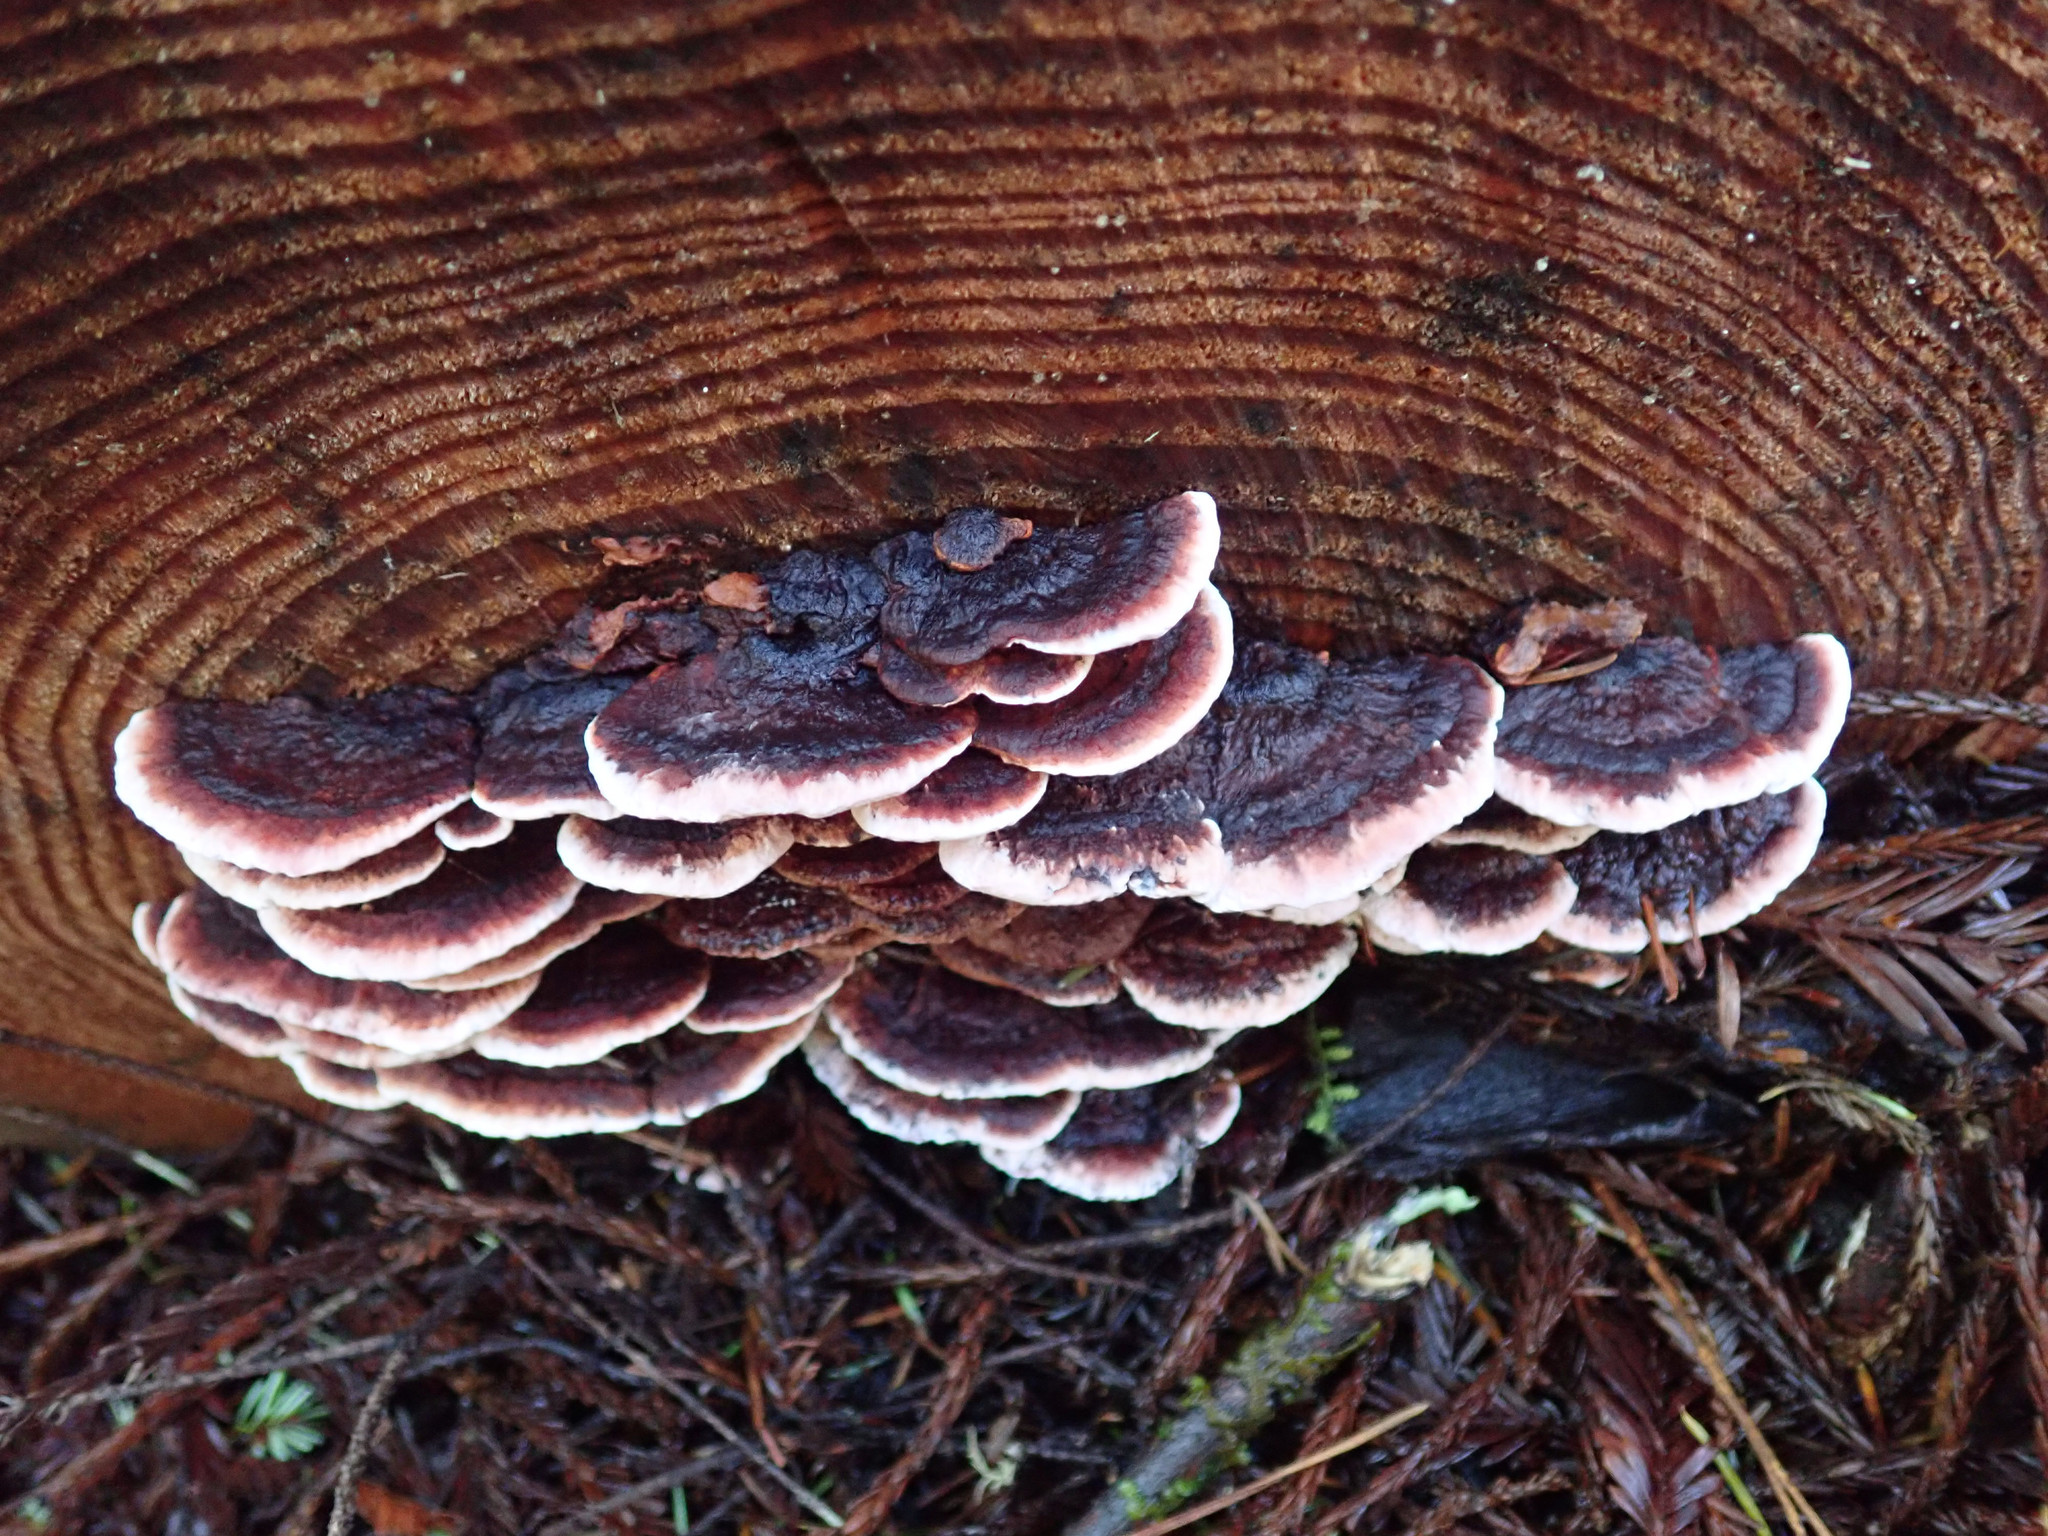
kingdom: Fungi
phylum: Basidiomycota
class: Agaricomycetes
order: Polyporales
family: Fomitopsidaceae
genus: Rhodofomes
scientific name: Rhodofomes cajanderi
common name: Rosy conk
